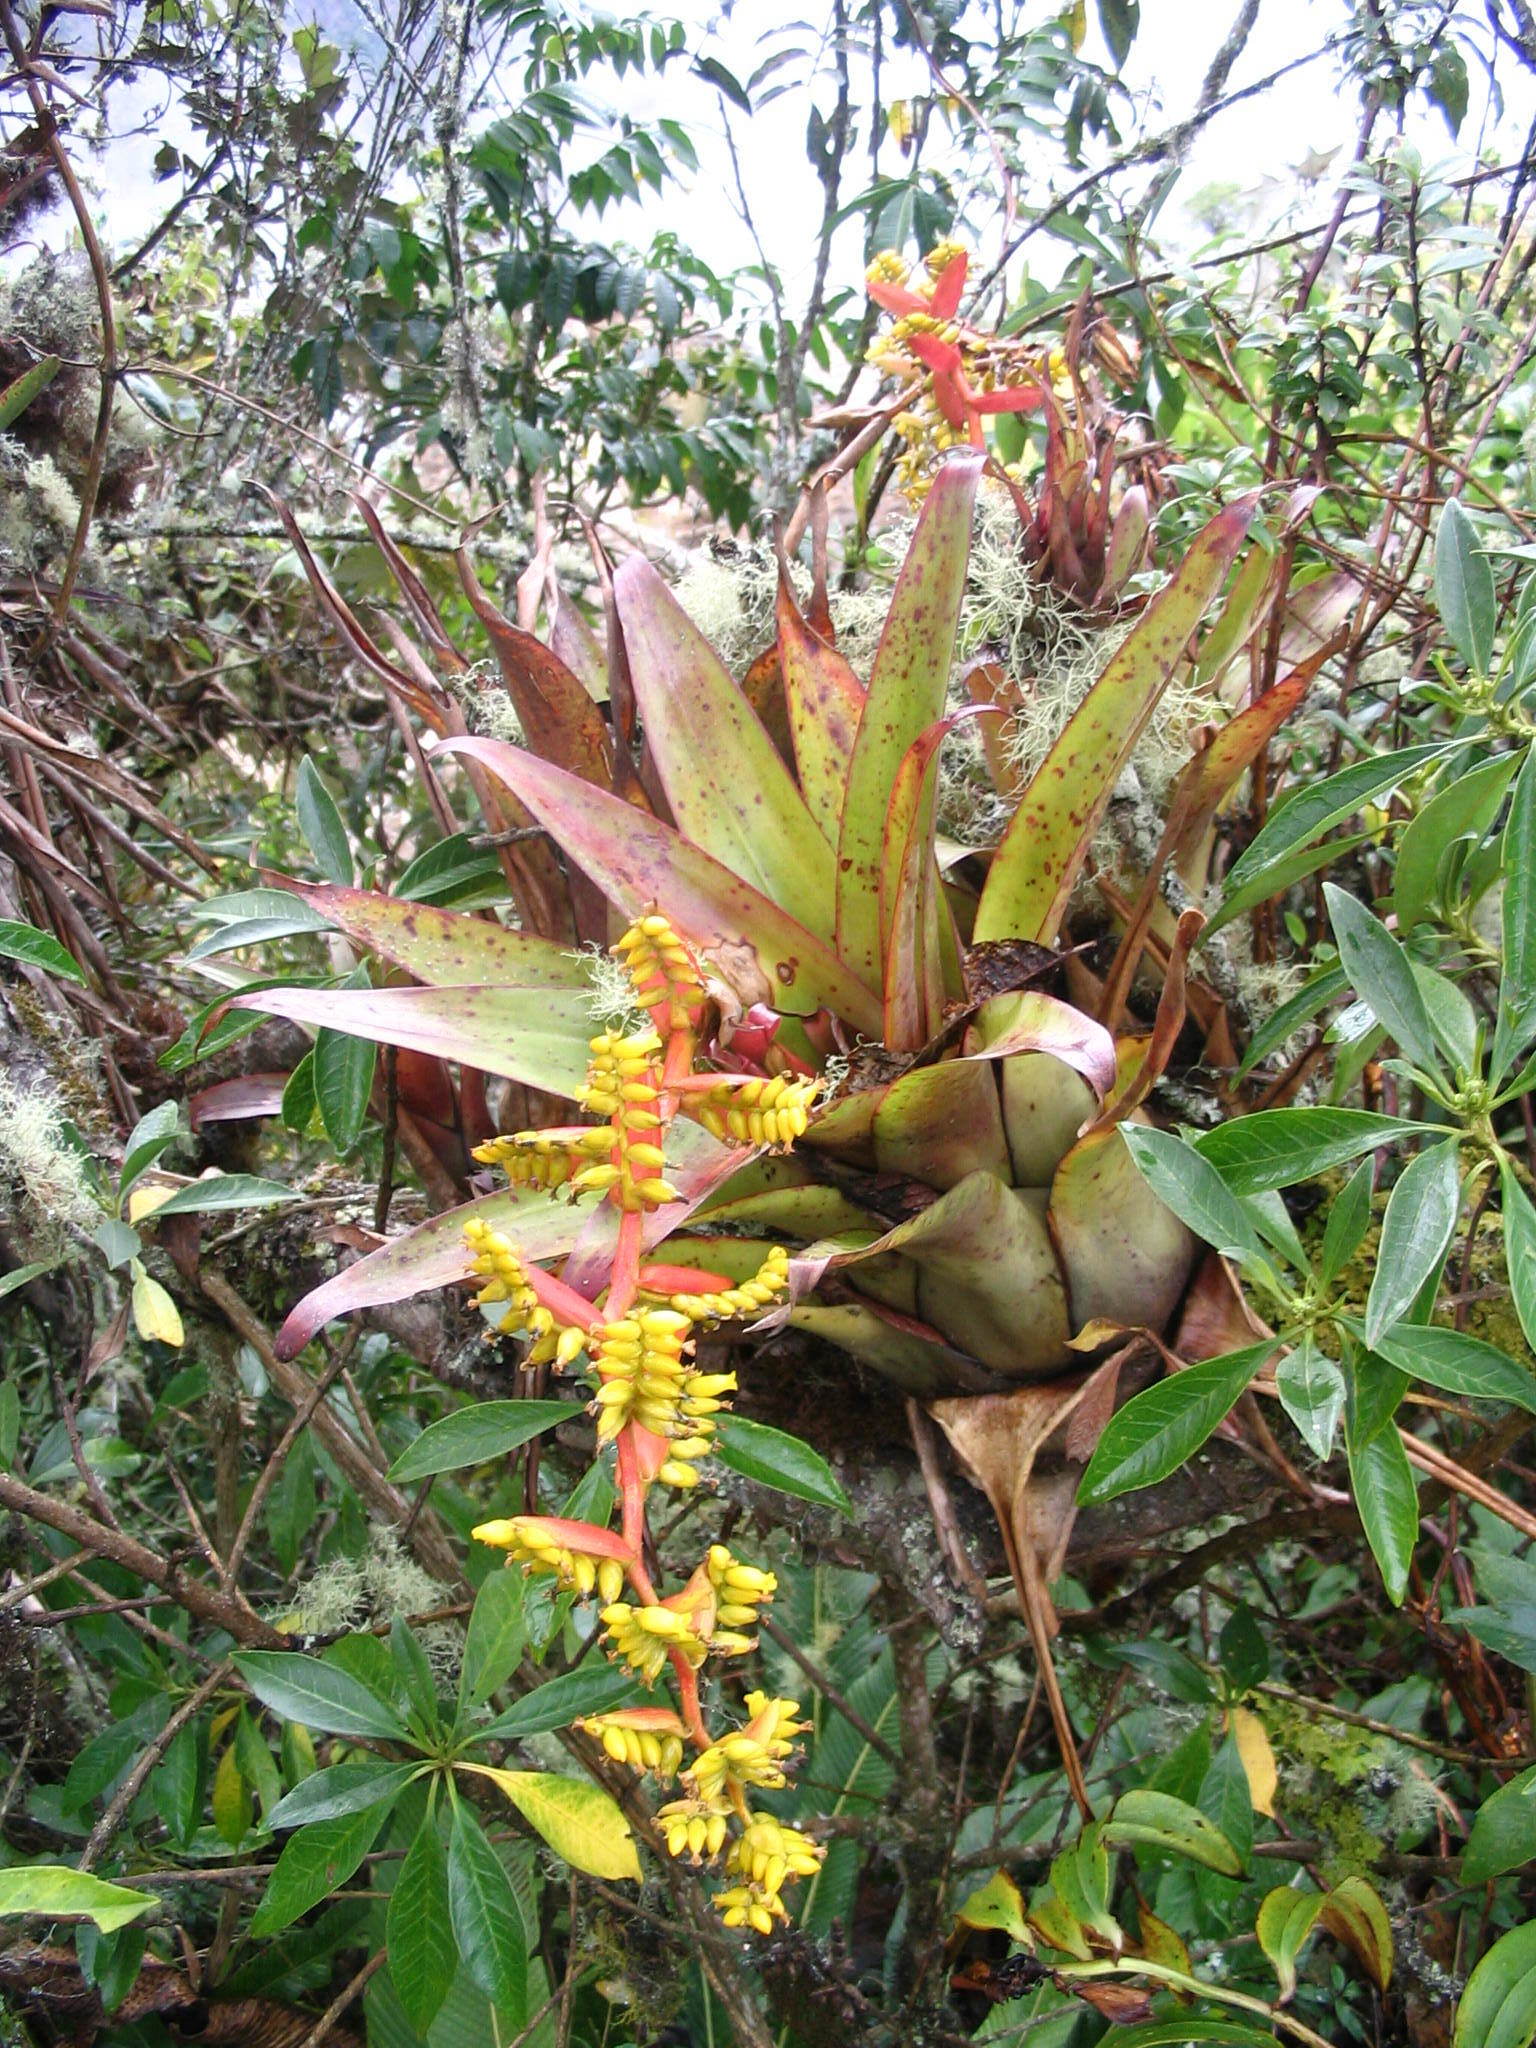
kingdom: Plantae
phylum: Tracheophyta
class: Liliopsida
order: Poales
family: Bromeliaceae
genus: Racinaea
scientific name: Racinaea tetrantha
